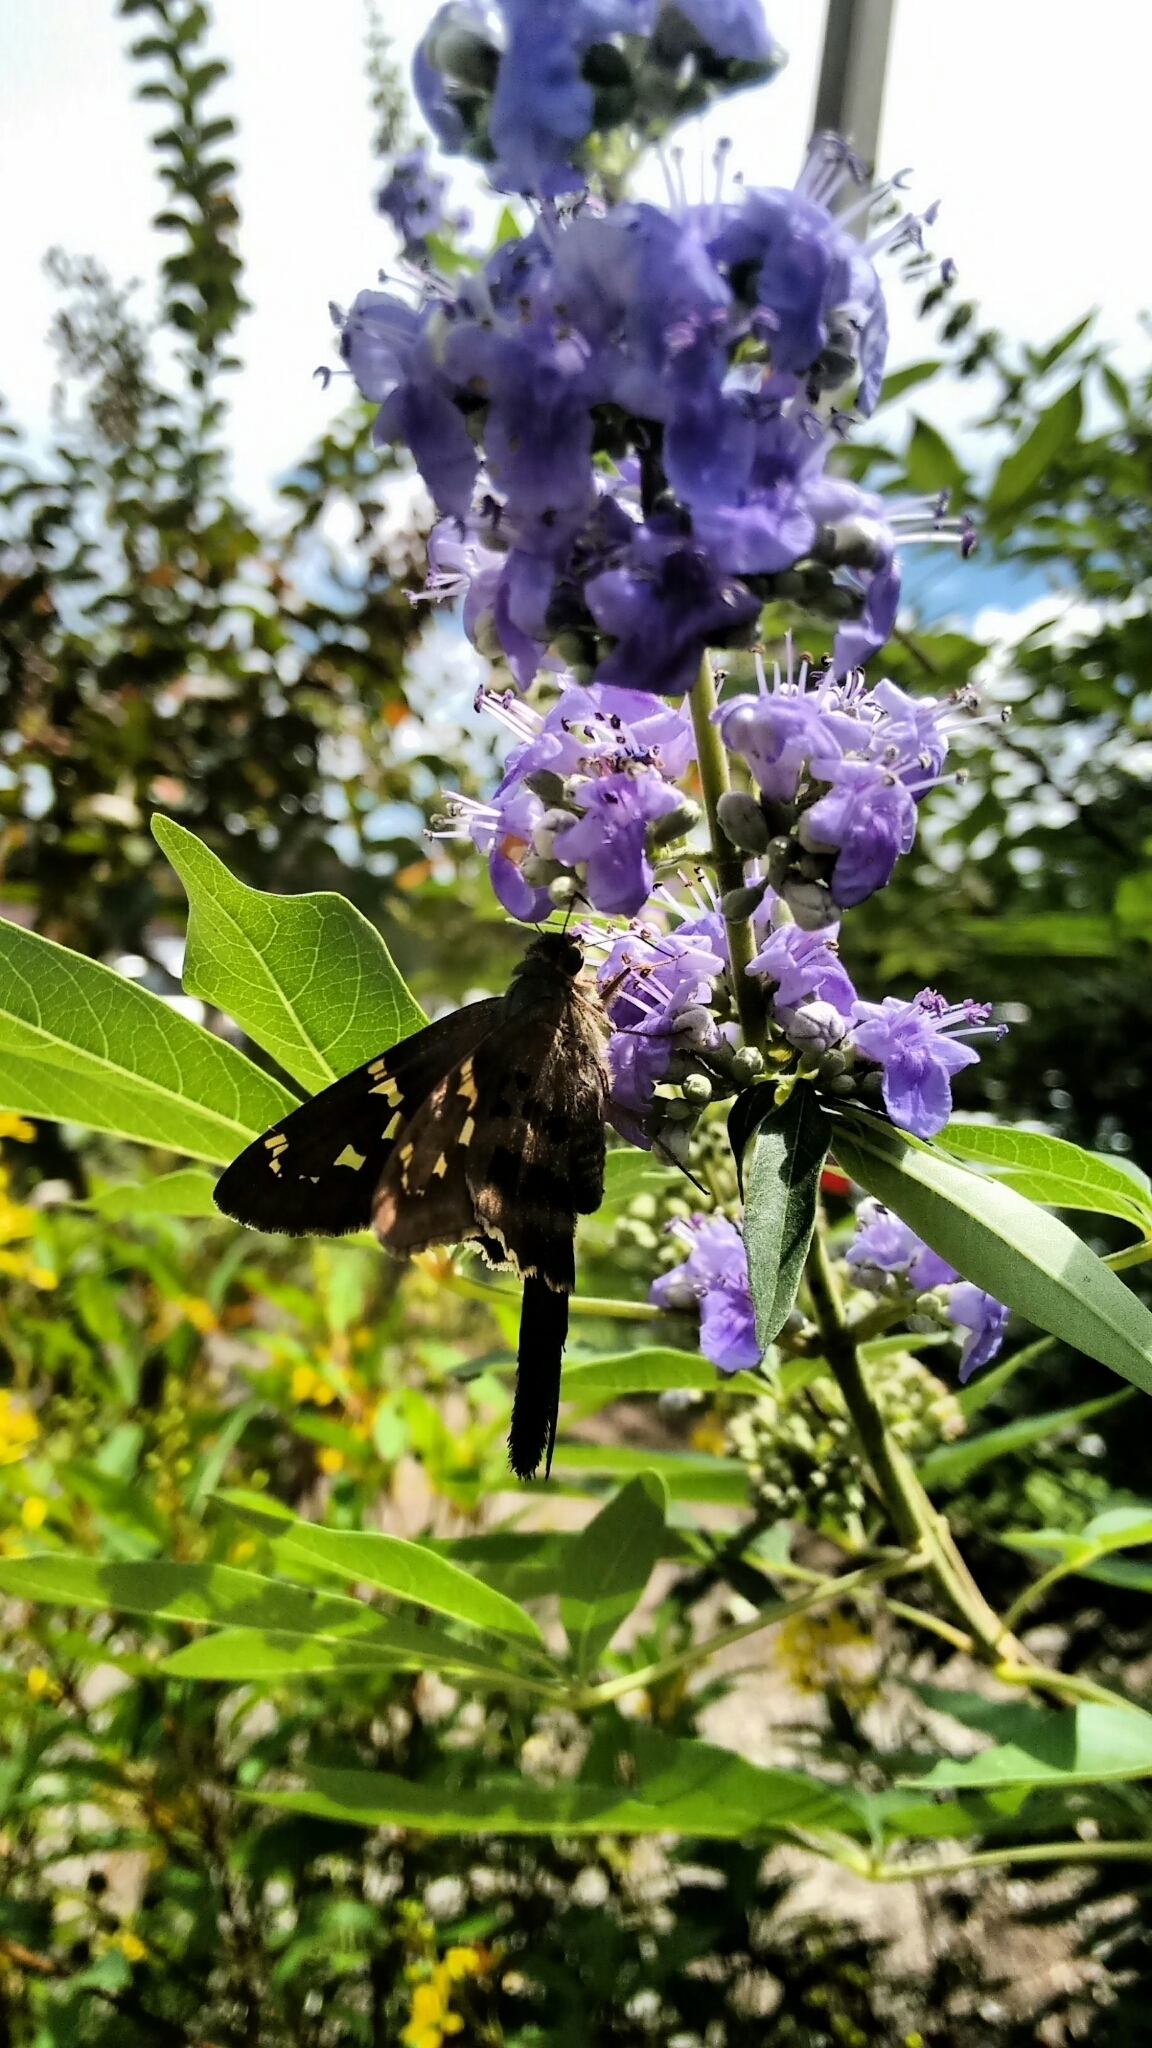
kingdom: Animalia
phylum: Arthropoda
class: Insecta
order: Lepidoptera
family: Hesperiidae
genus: Urbanus
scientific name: Urbanus proteus
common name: Long-tailed skipper
